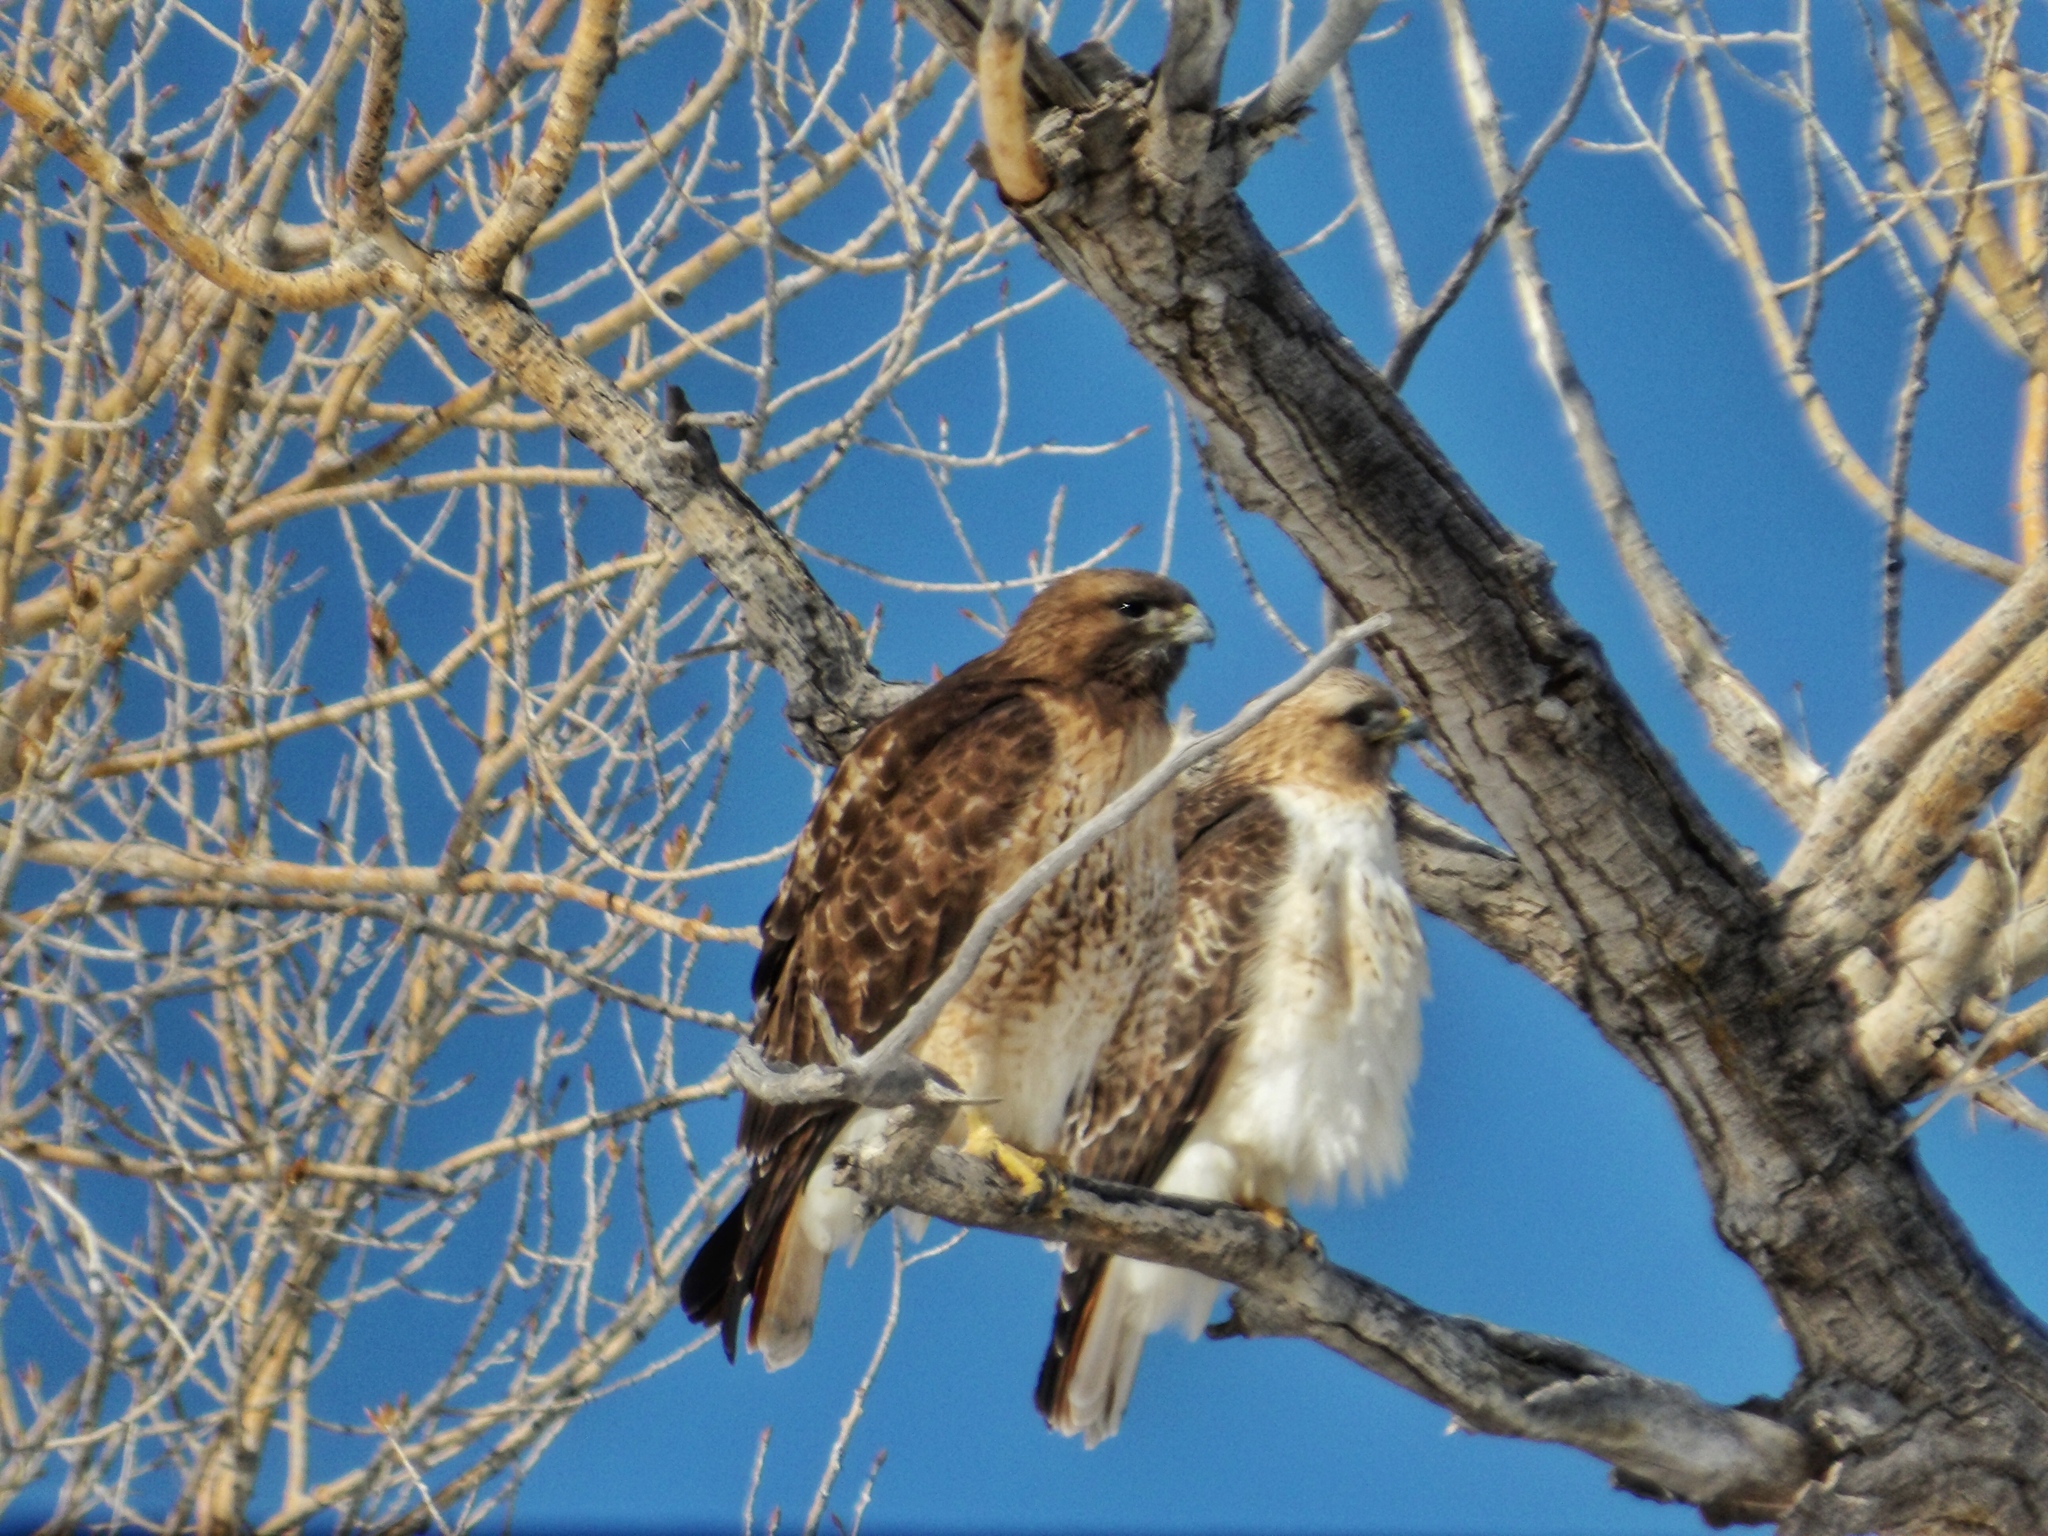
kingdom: Animalia
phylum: Chordata
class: Aves
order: Accipitriformes
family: Accipitridae
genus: Buteo
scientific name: Buteo jamaicensis
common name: Red-tailed hawk
